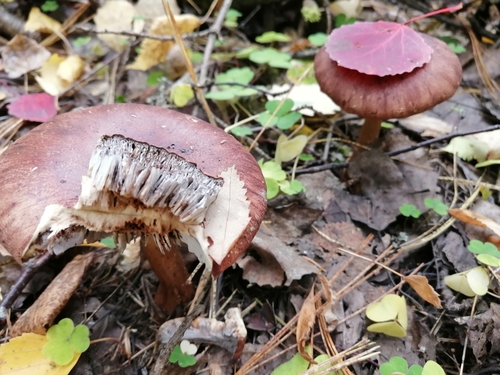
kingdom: Fungi
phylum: Basidiomycota
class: Agaricomycetes
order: Agaricales
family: Tricholomataceae
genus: Tricholoma
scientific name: Tricholoma fulvum
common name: Birch knight
